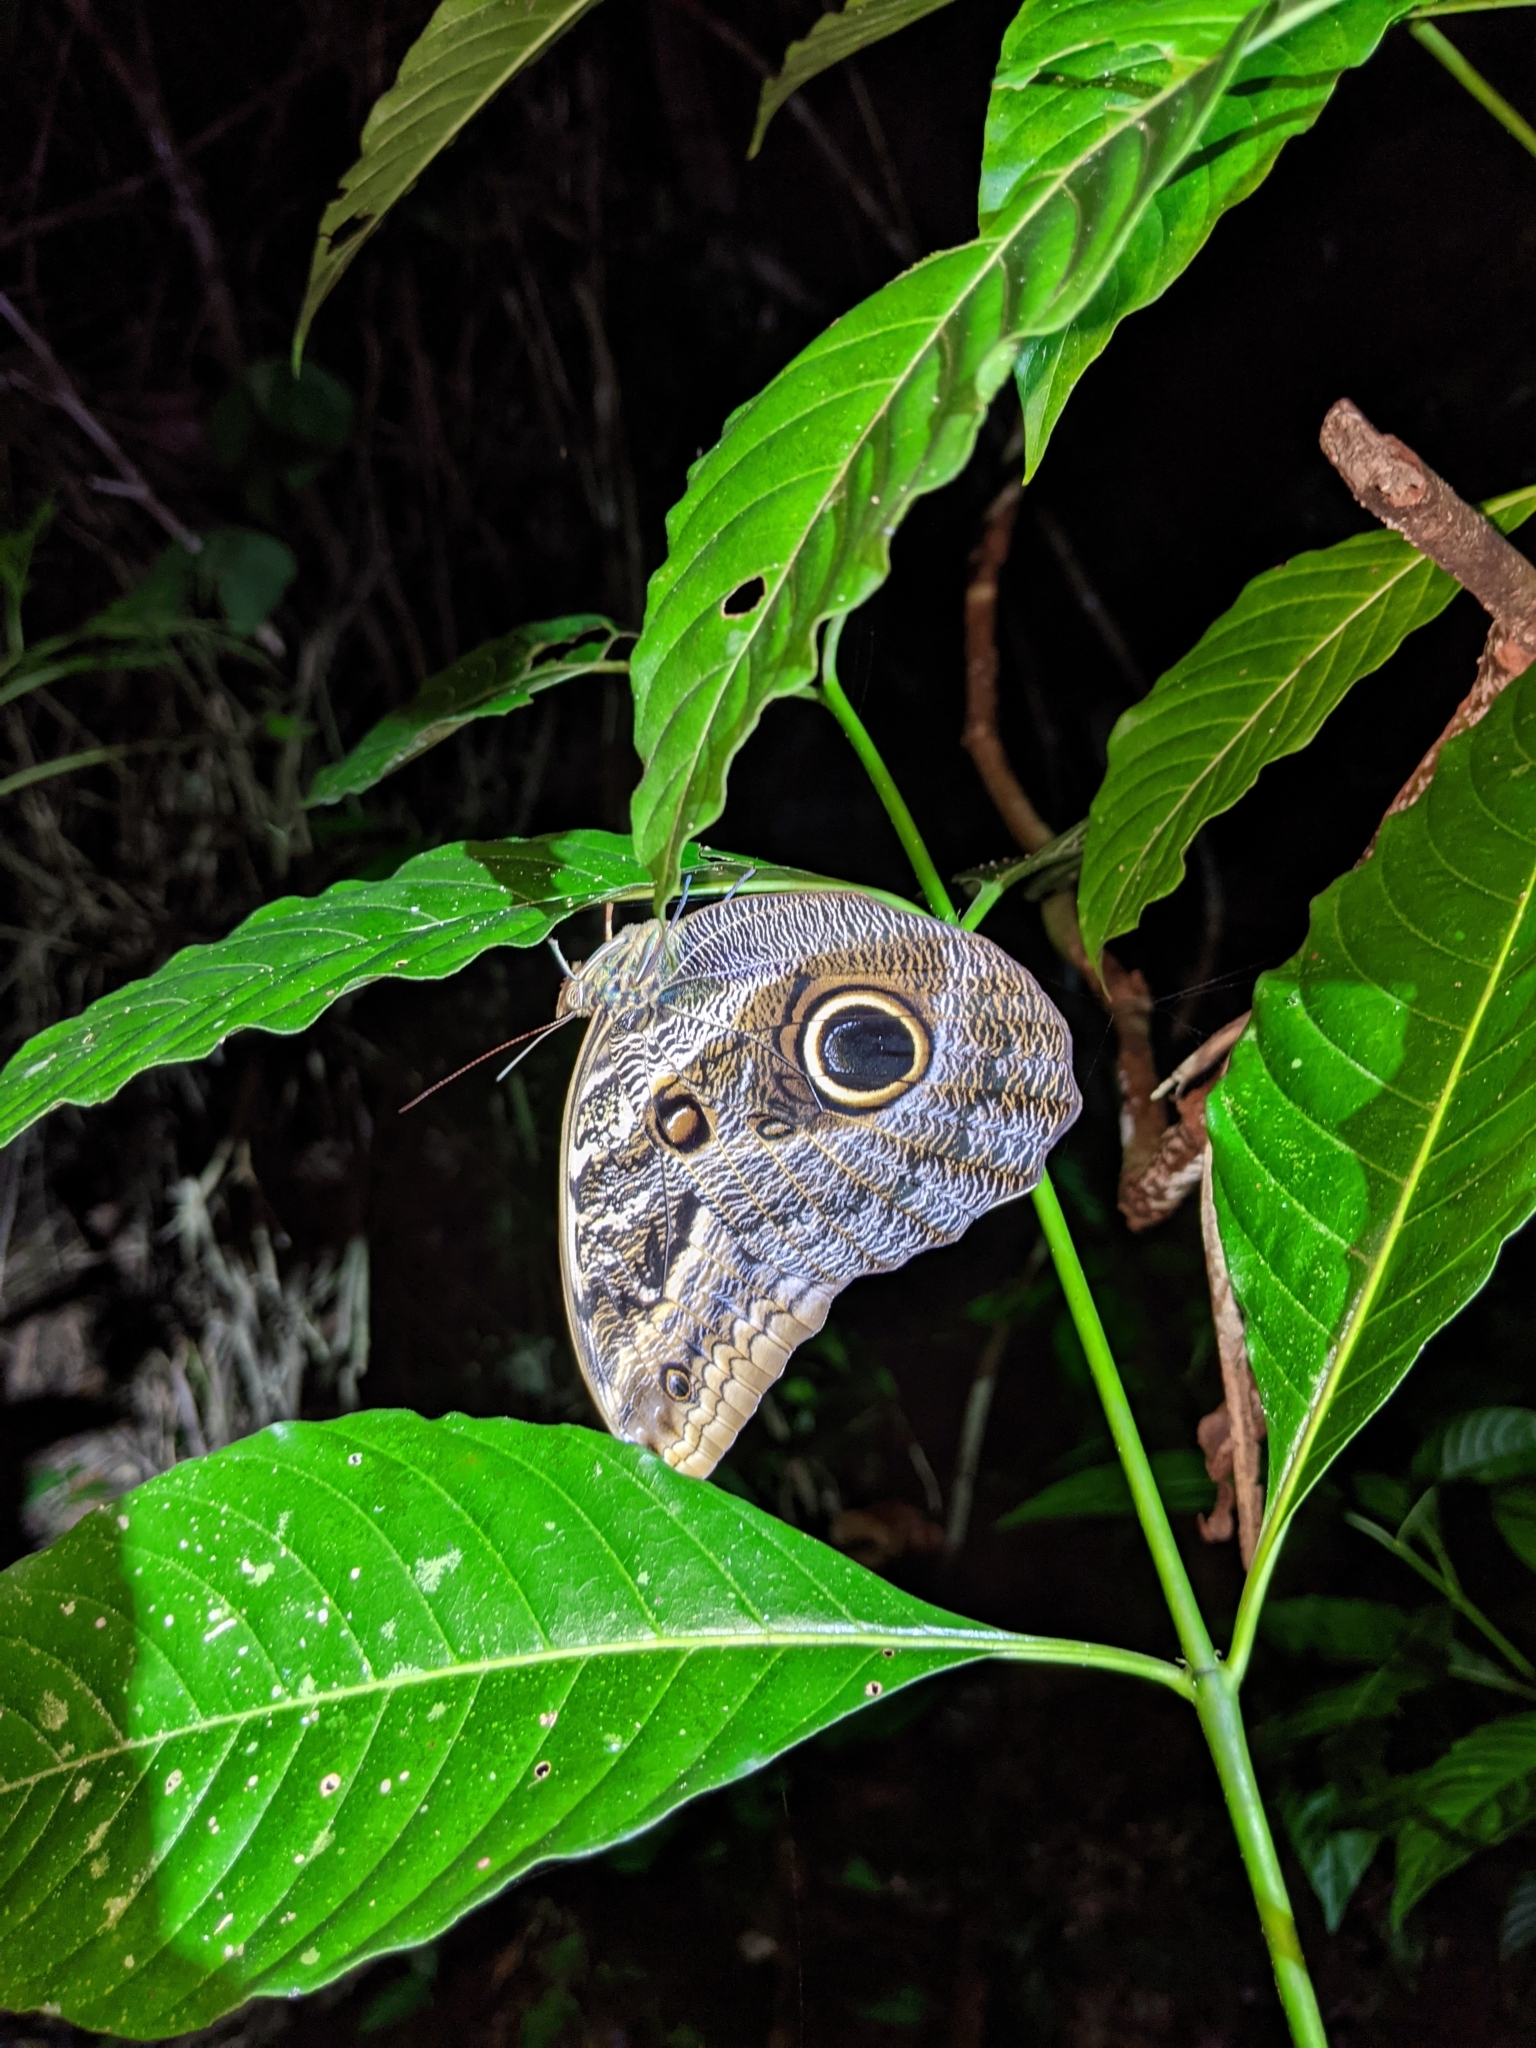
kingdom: Animalia
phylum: Arthropoda
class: Insecta
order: Lepidoptera
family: Nymphalidae
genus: Caligo
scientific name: Caligo teucer
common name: Teucer owl butterfly
